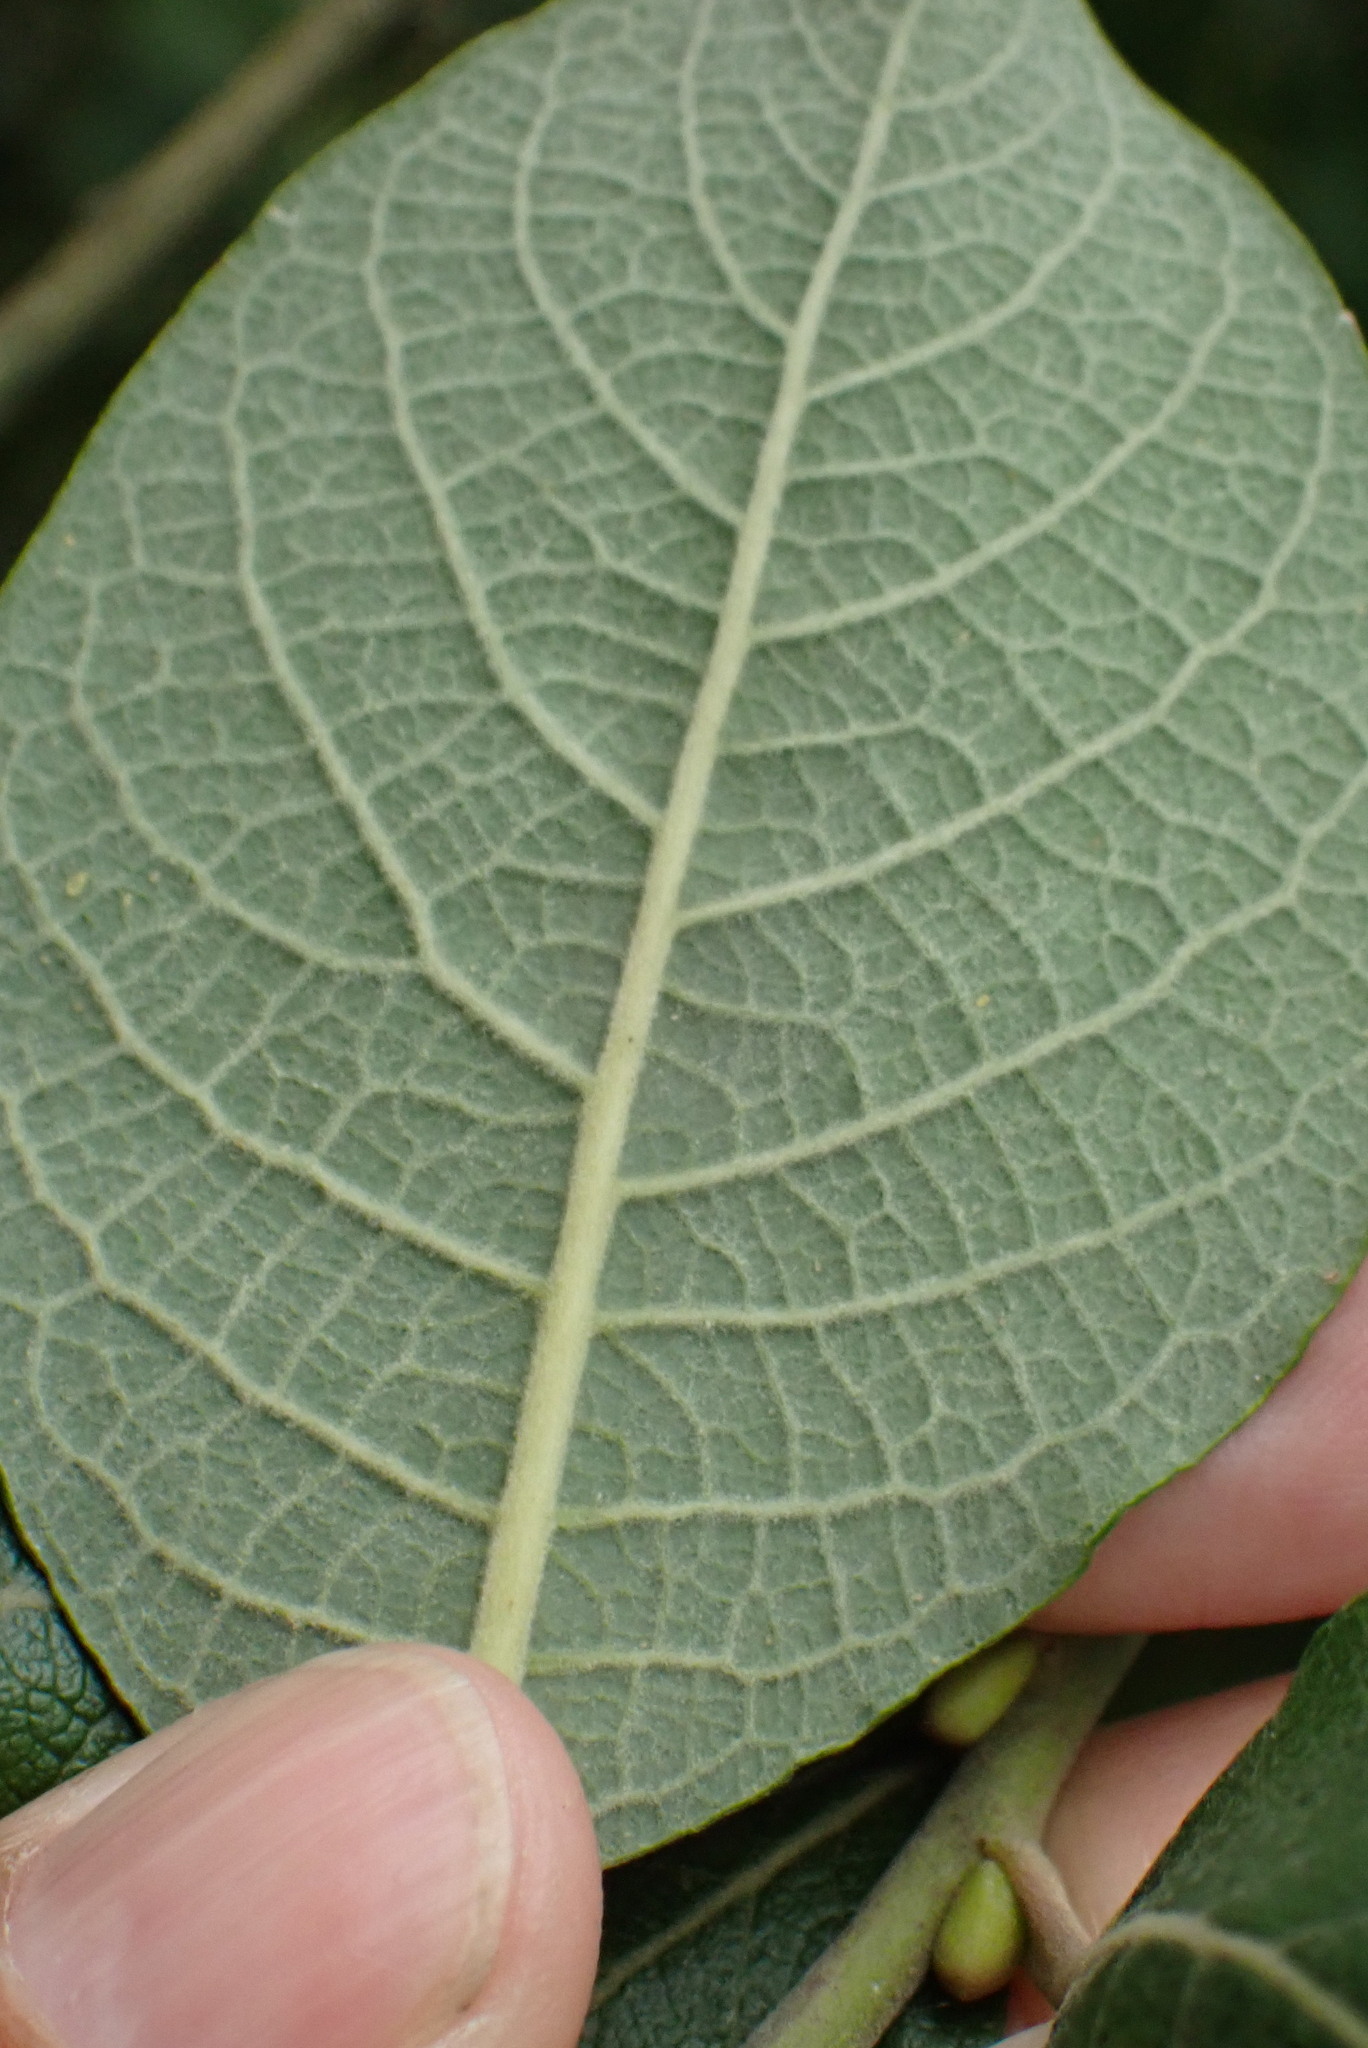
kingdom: Plantae
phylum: Tracheophyta
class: Magnoliopsida
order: Malpighiales
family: Salicaceae
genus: Salix
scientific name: Salix caprea
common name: Goat willow
